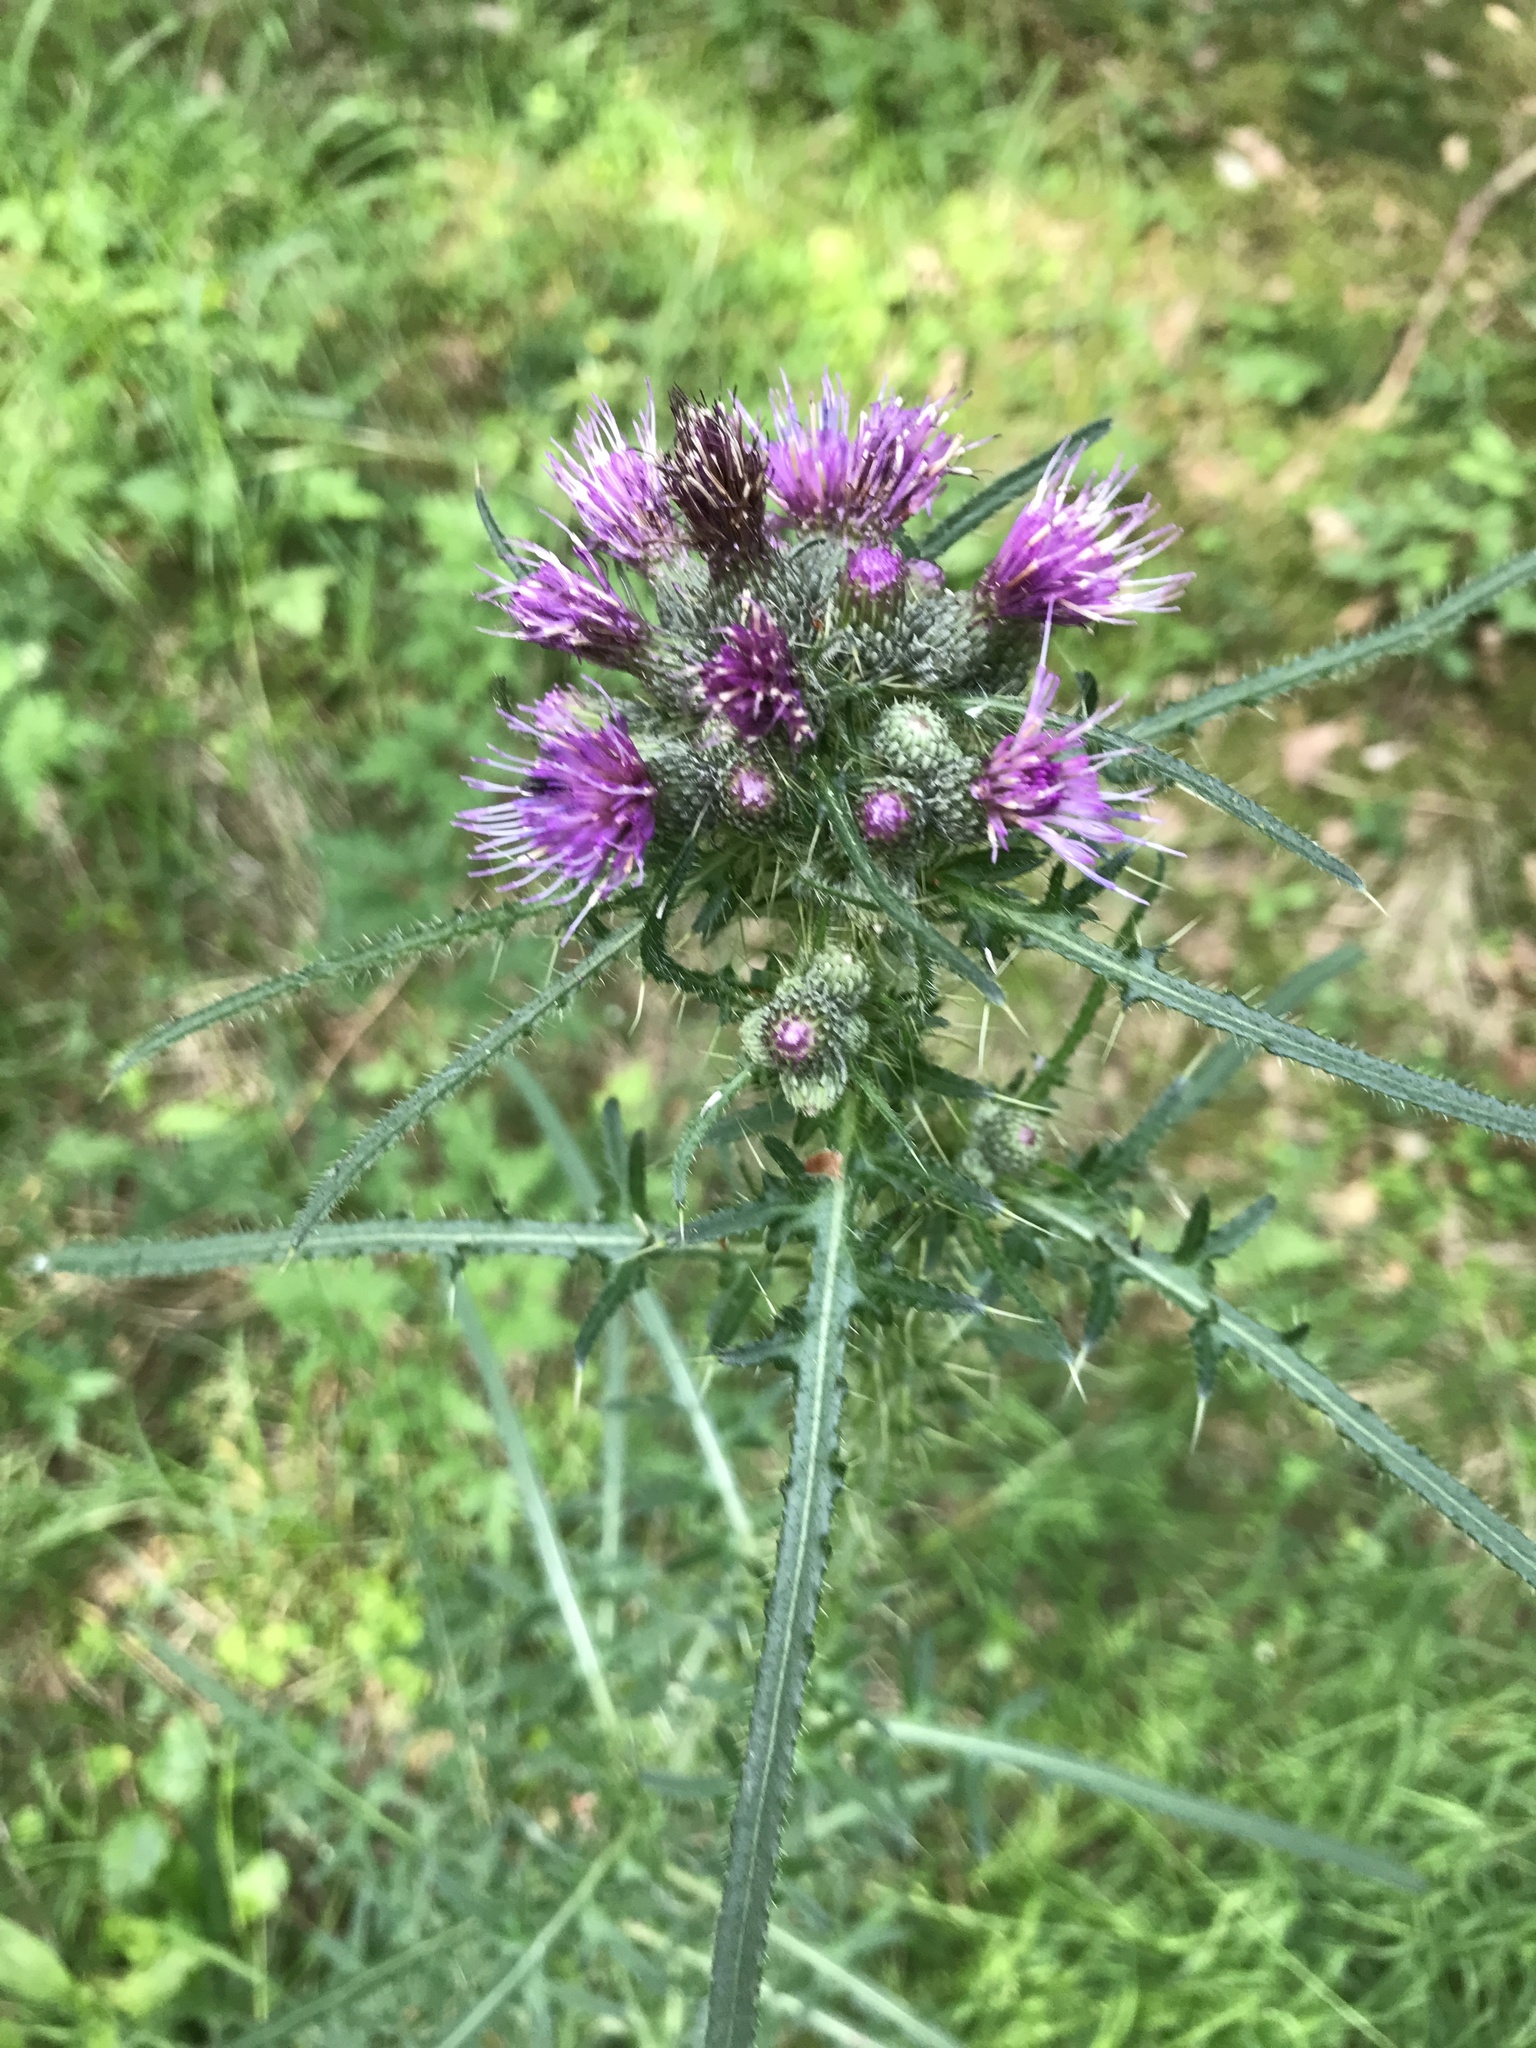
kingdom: Plantae
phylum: Tracheophyta
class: Magnoliopsida
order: Asterales
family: Asteraceae
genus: Cirsium
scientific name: Cirsium palustre
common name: Marsh thistle
